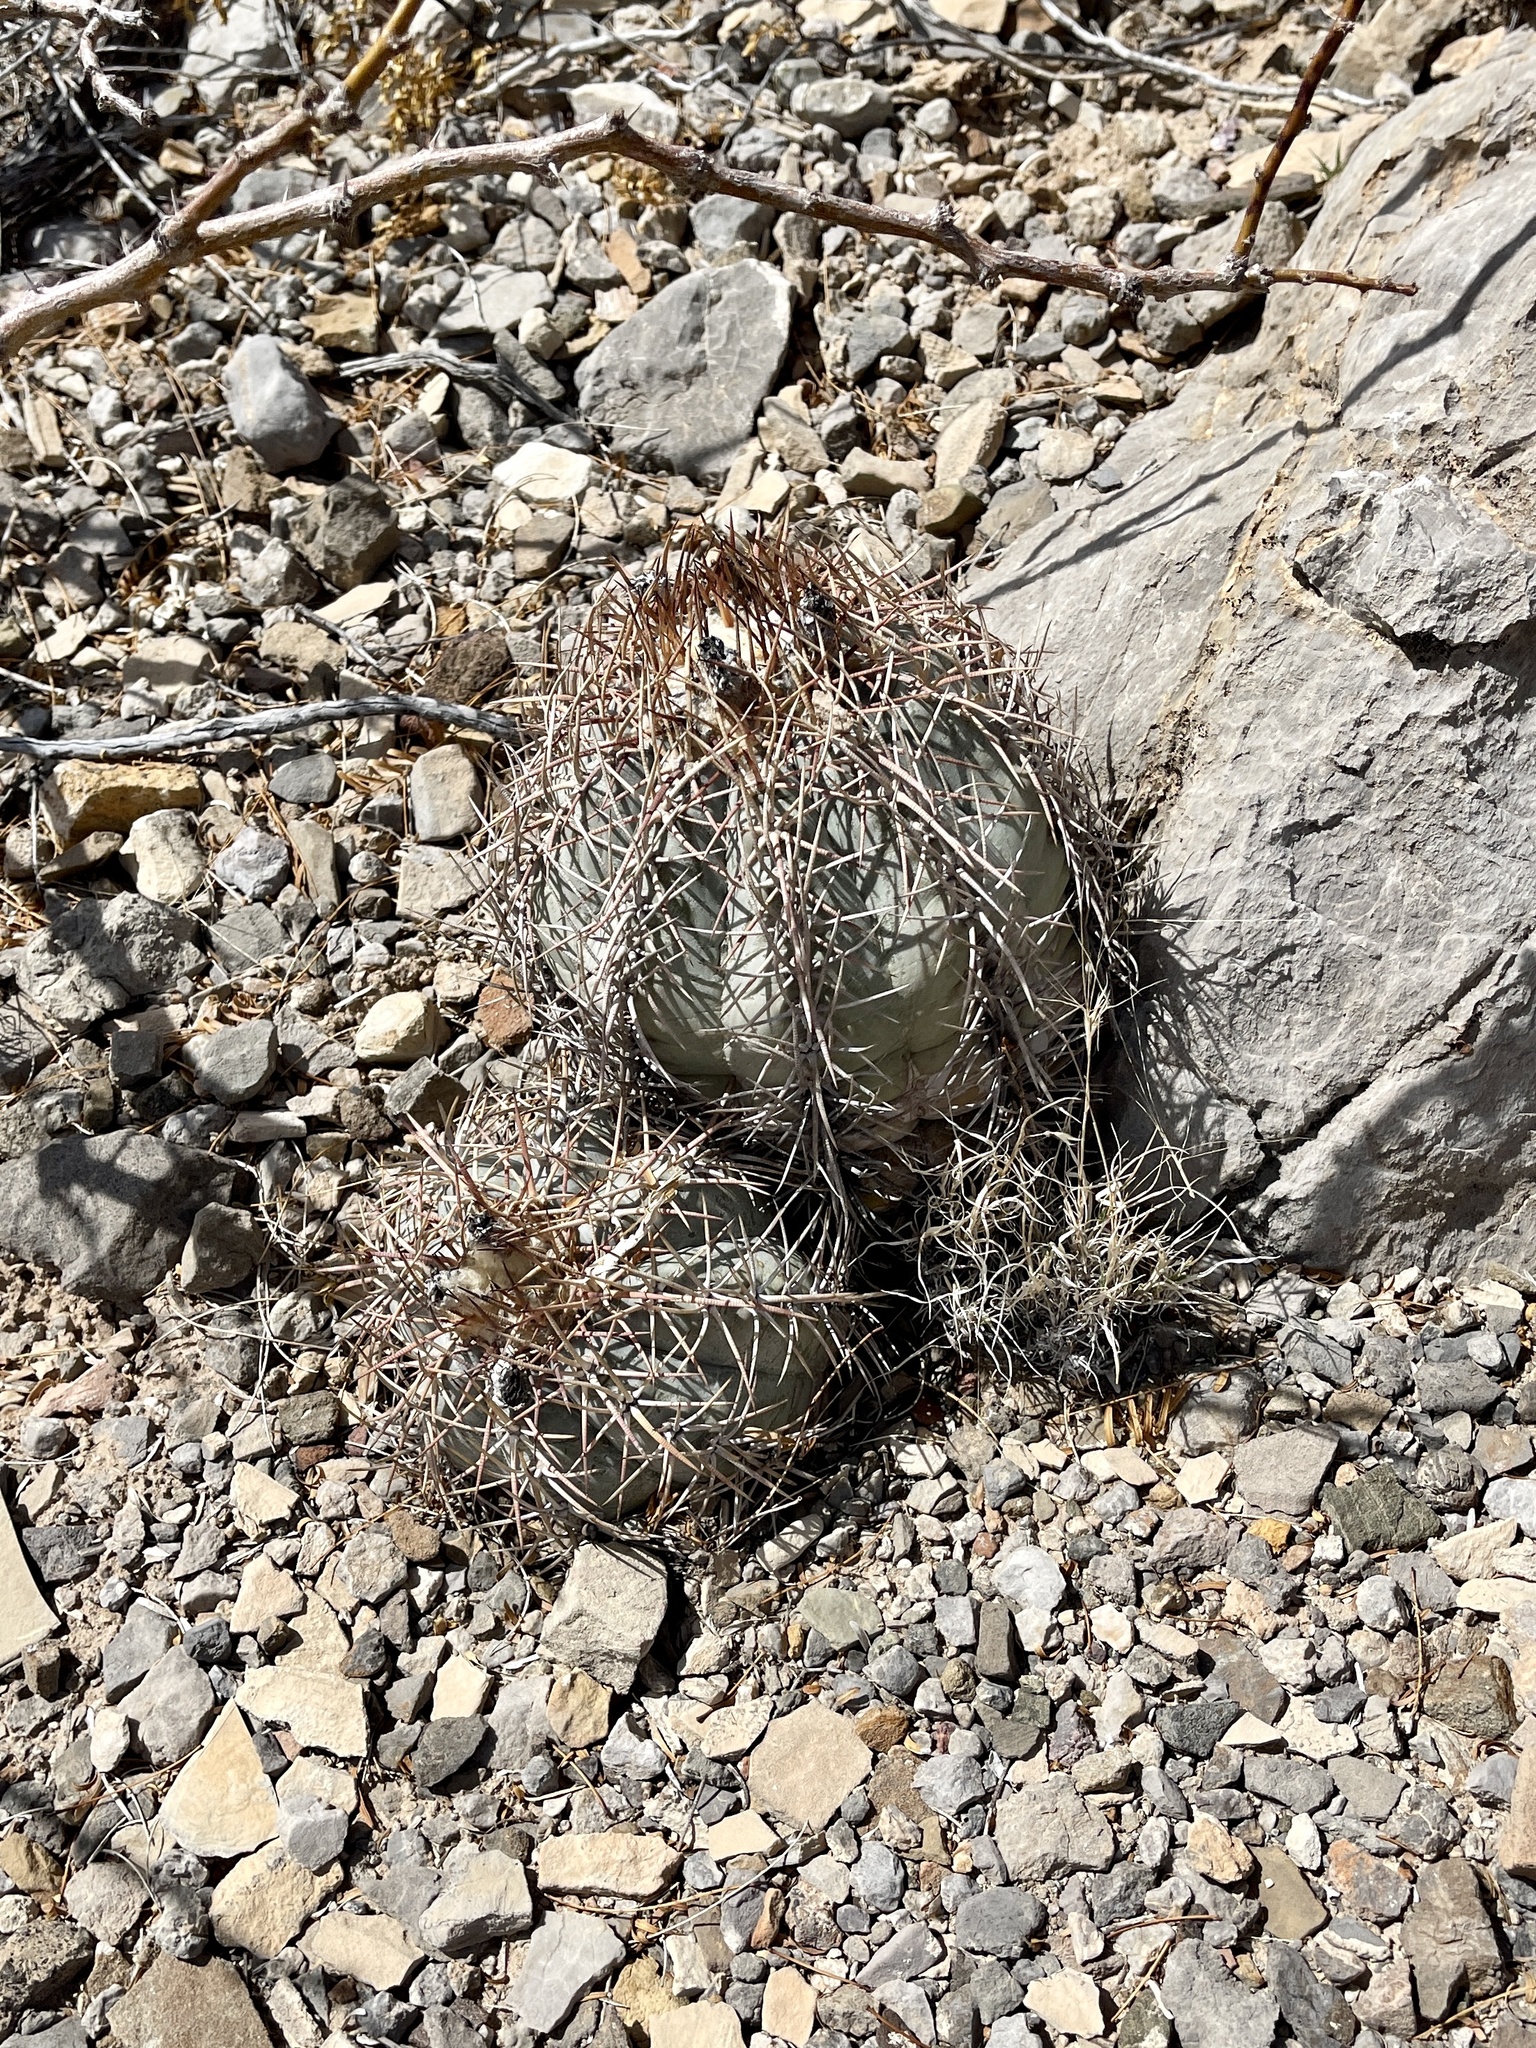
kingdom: Plantae
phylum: Tracheophyta
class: Magnoliopsida
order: Caryophyllales
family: Cactaceae
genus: Echinocactus
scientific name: Echinocactus horizonthalonius
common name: Devilshead
